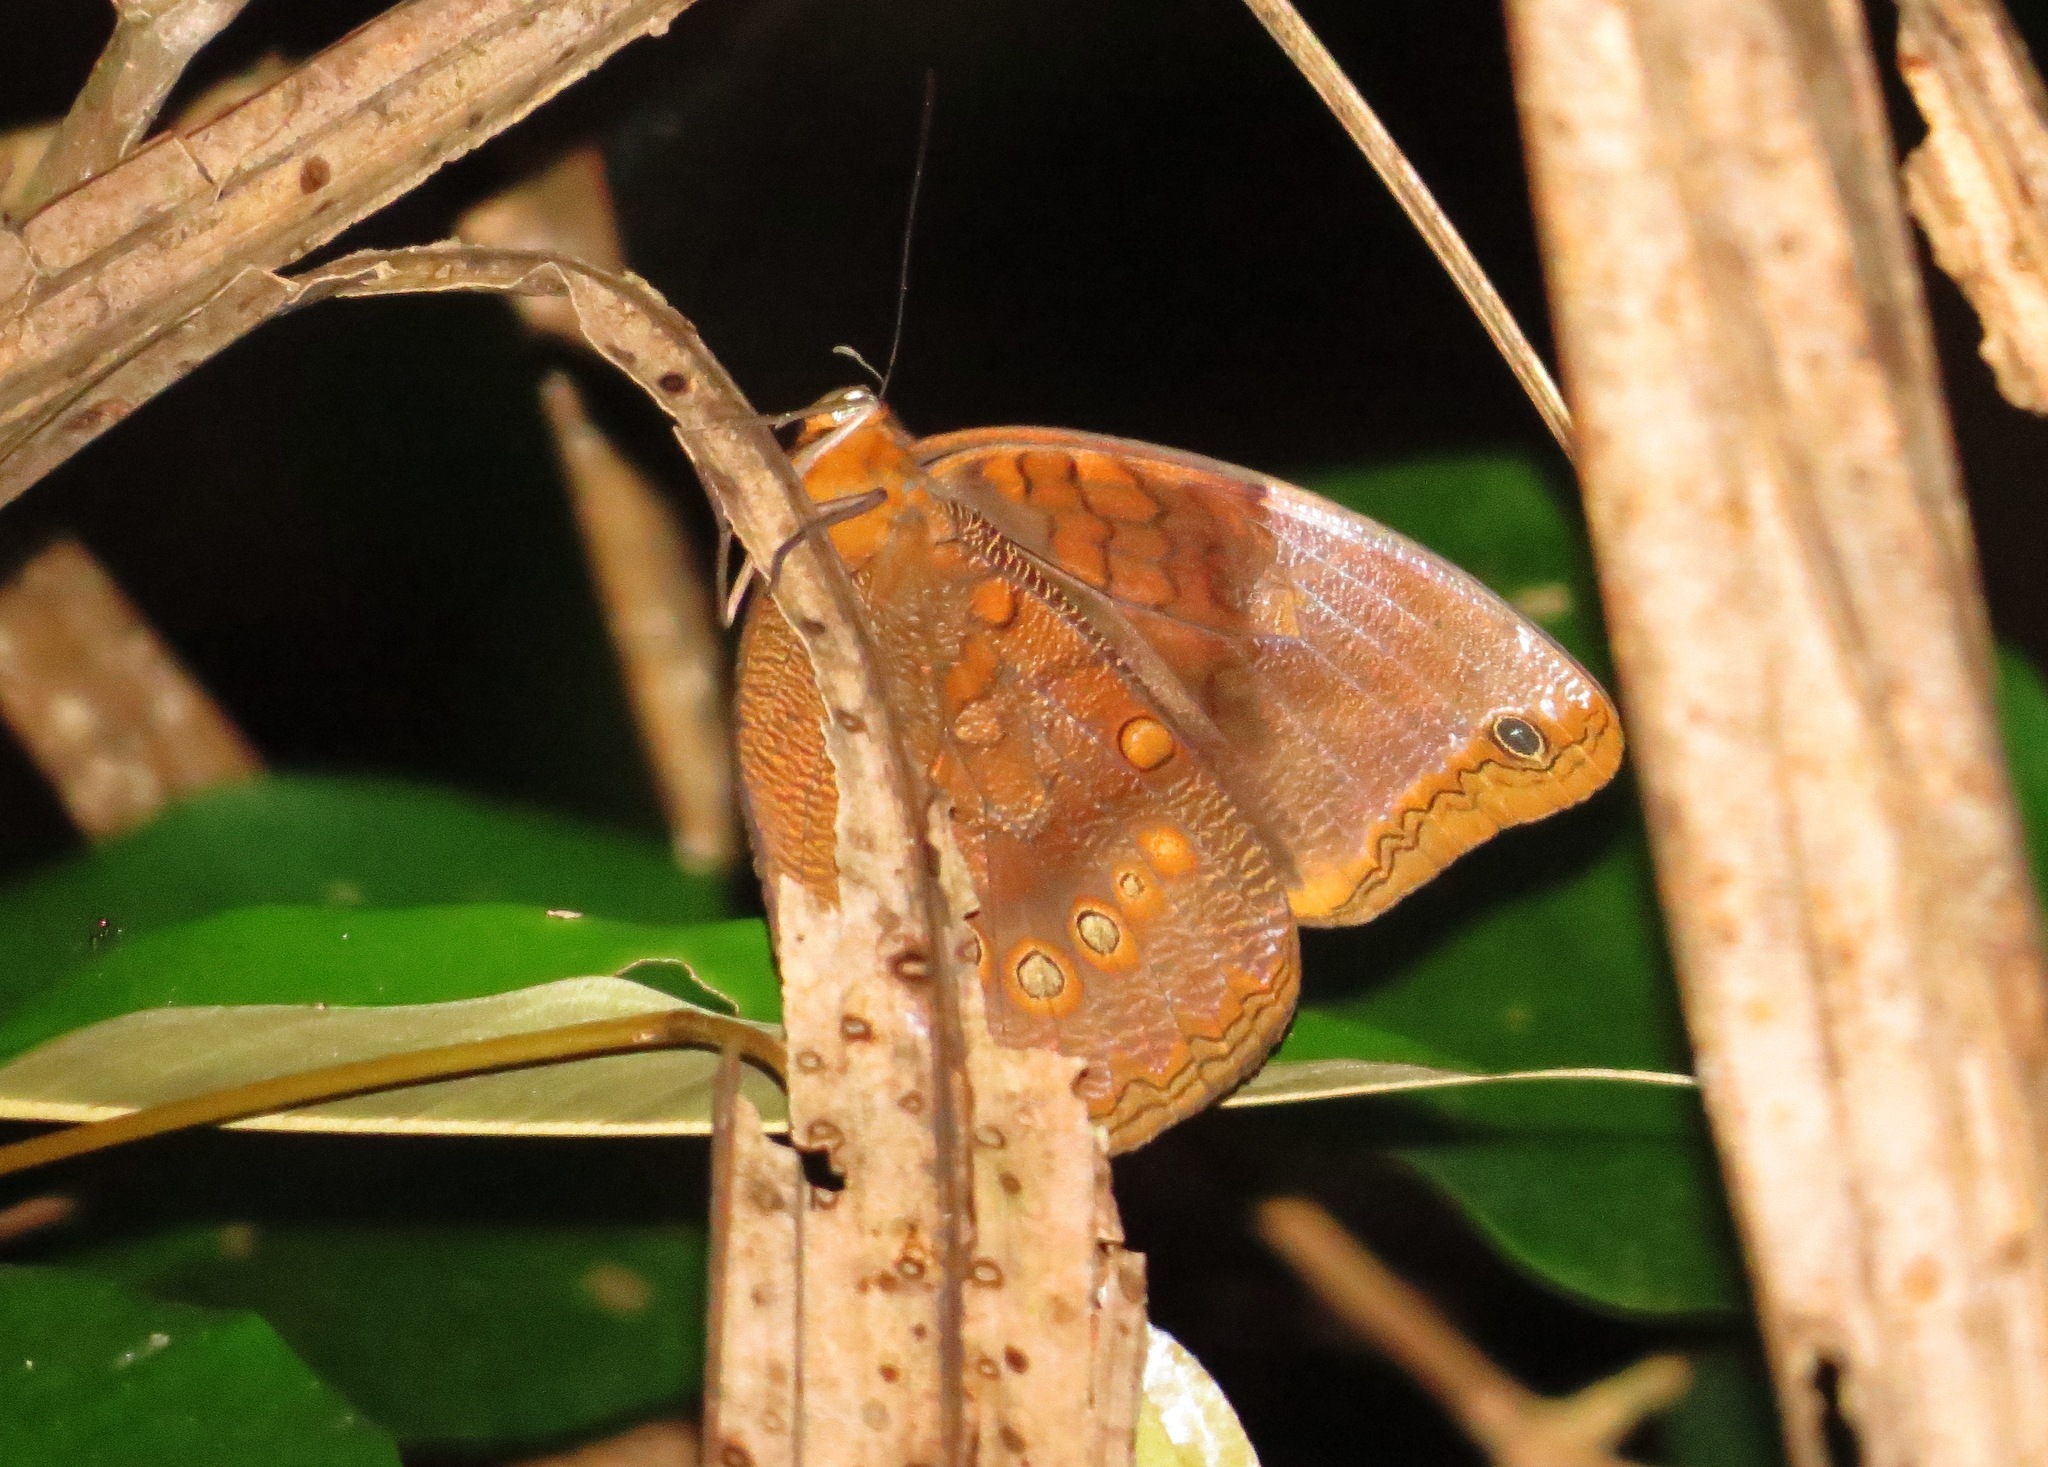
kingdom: Animalia
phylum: Arthropoda
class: Insecta
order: Lepidoptera
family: Nymphalidae
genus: Catoblepia
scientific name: Catoblepia berecynthia
